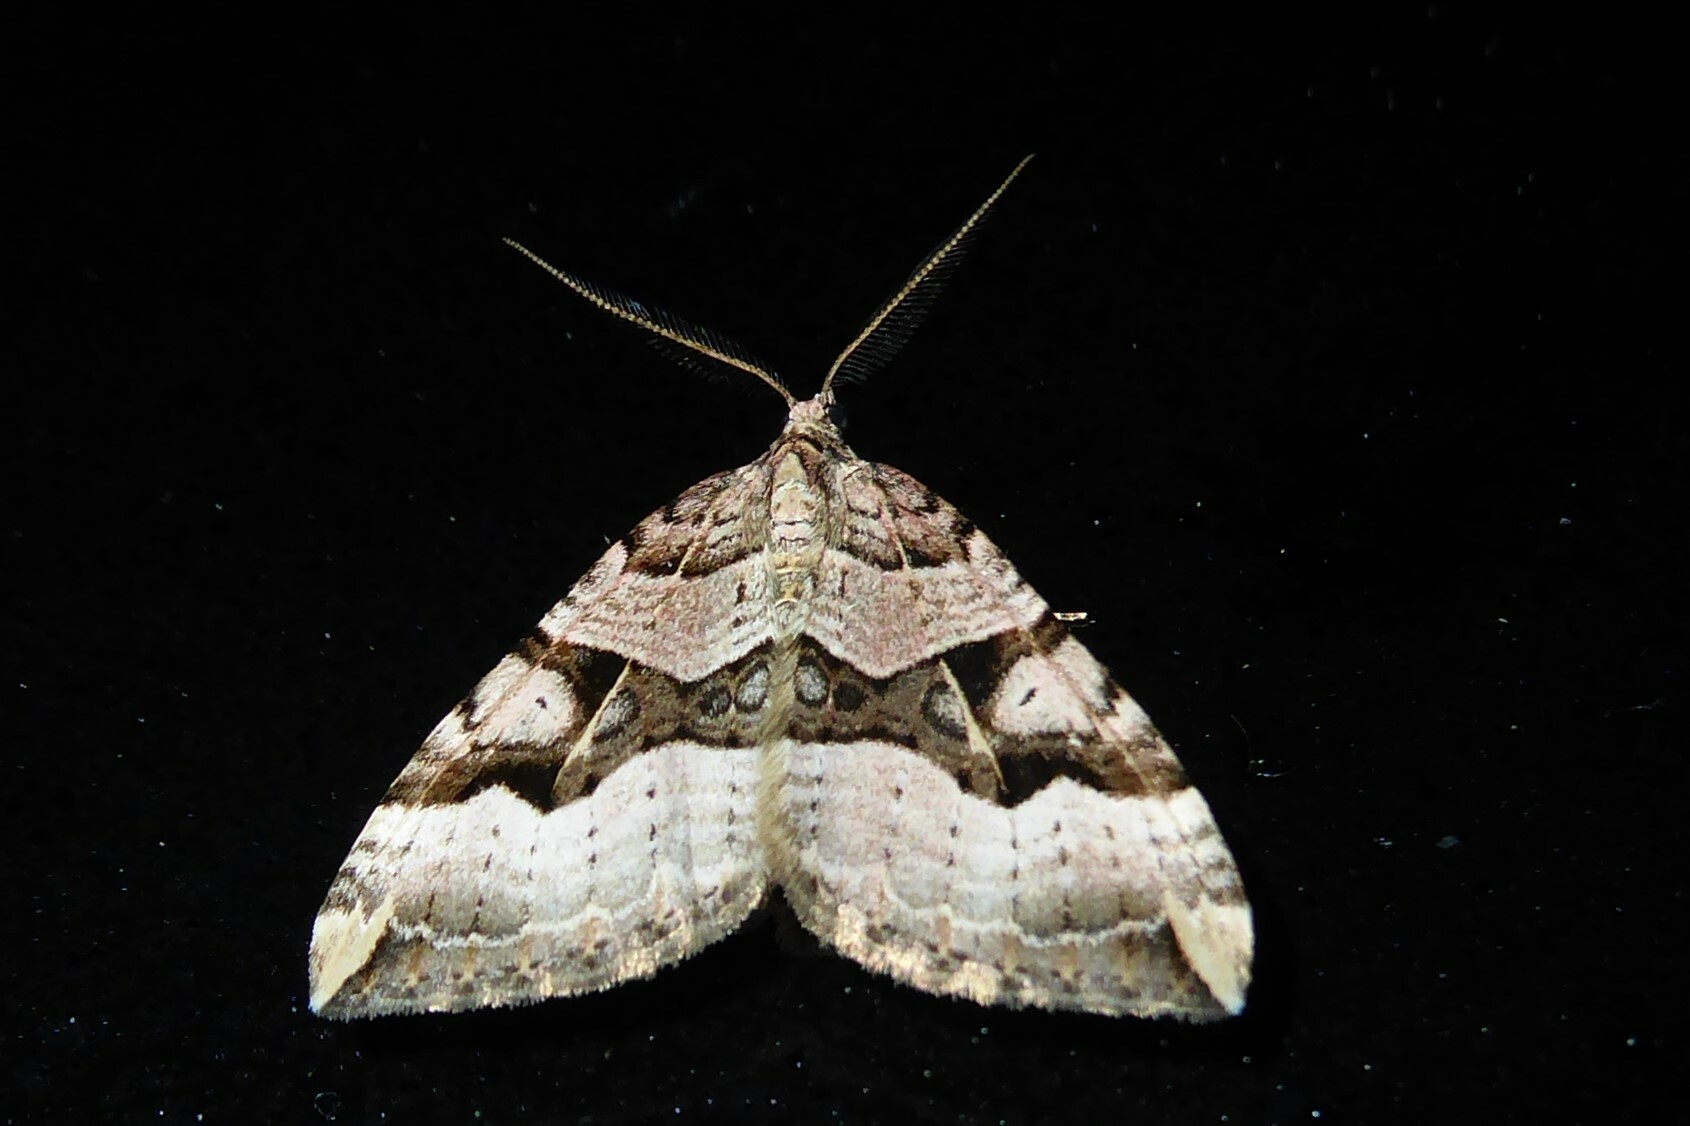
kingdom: Animalia
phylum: Arthropoda
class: Insecta
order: Lepidoptera
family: Geometridae
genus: Xanthorhoe
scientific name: Xanthorhoe semifissata
